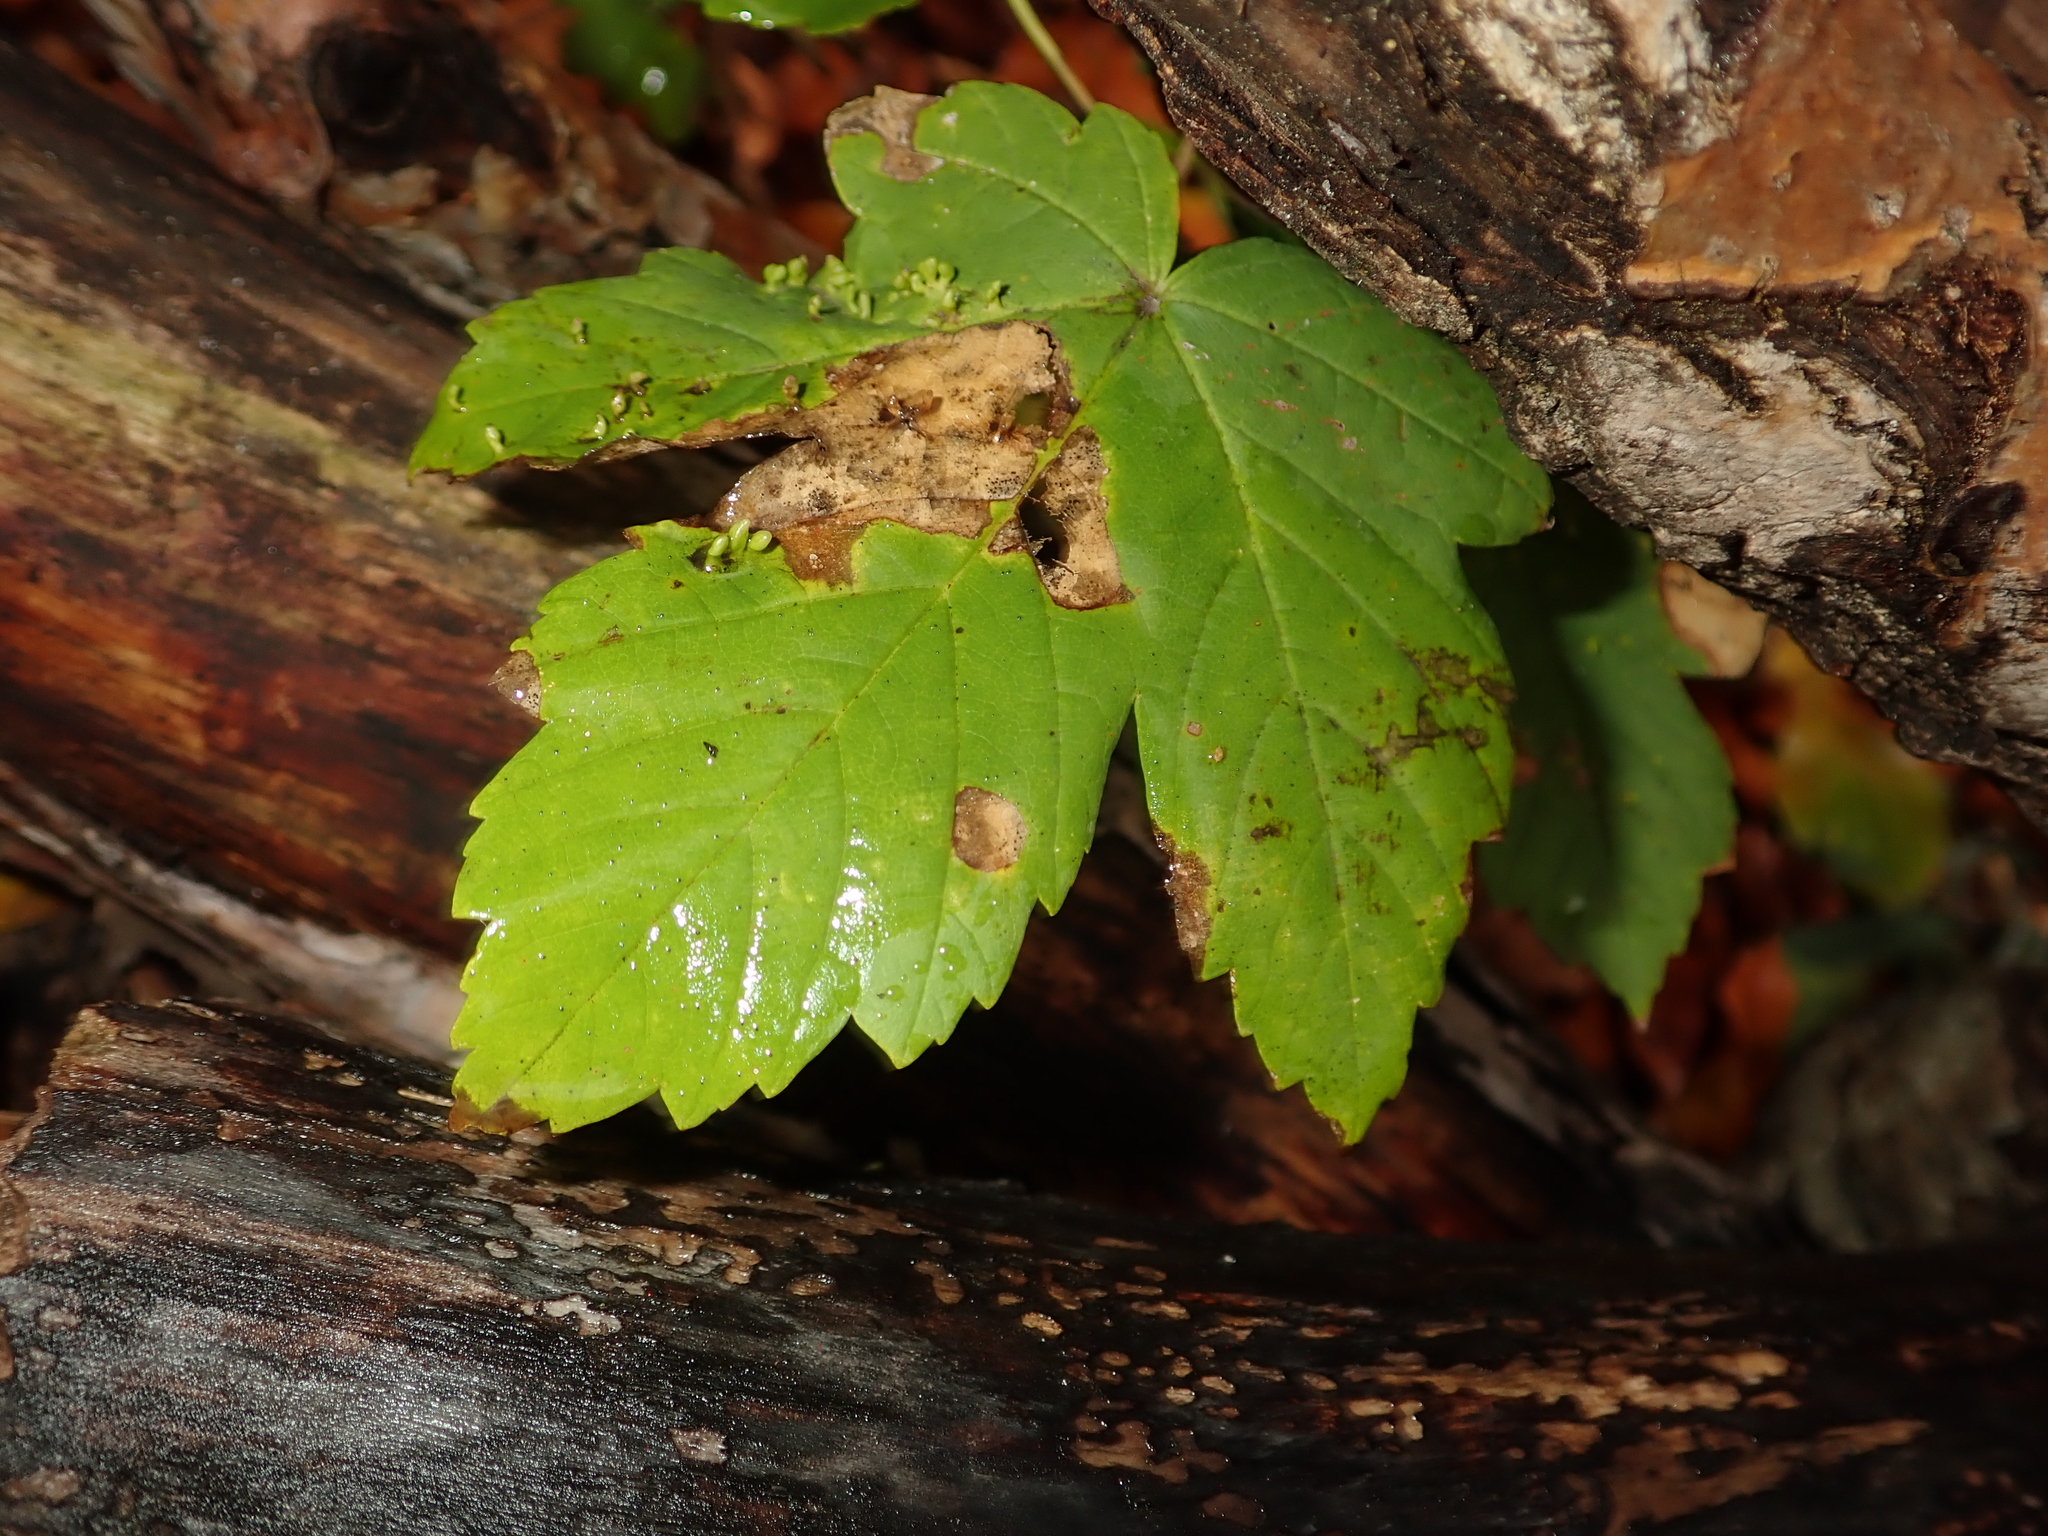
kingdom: Plantae
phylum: Tracheophyta
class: Magnoliopsida
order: Sapindales
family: Sapindaceae
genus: Acer
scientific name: Acer pseudoplatanus
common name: Sycamore
